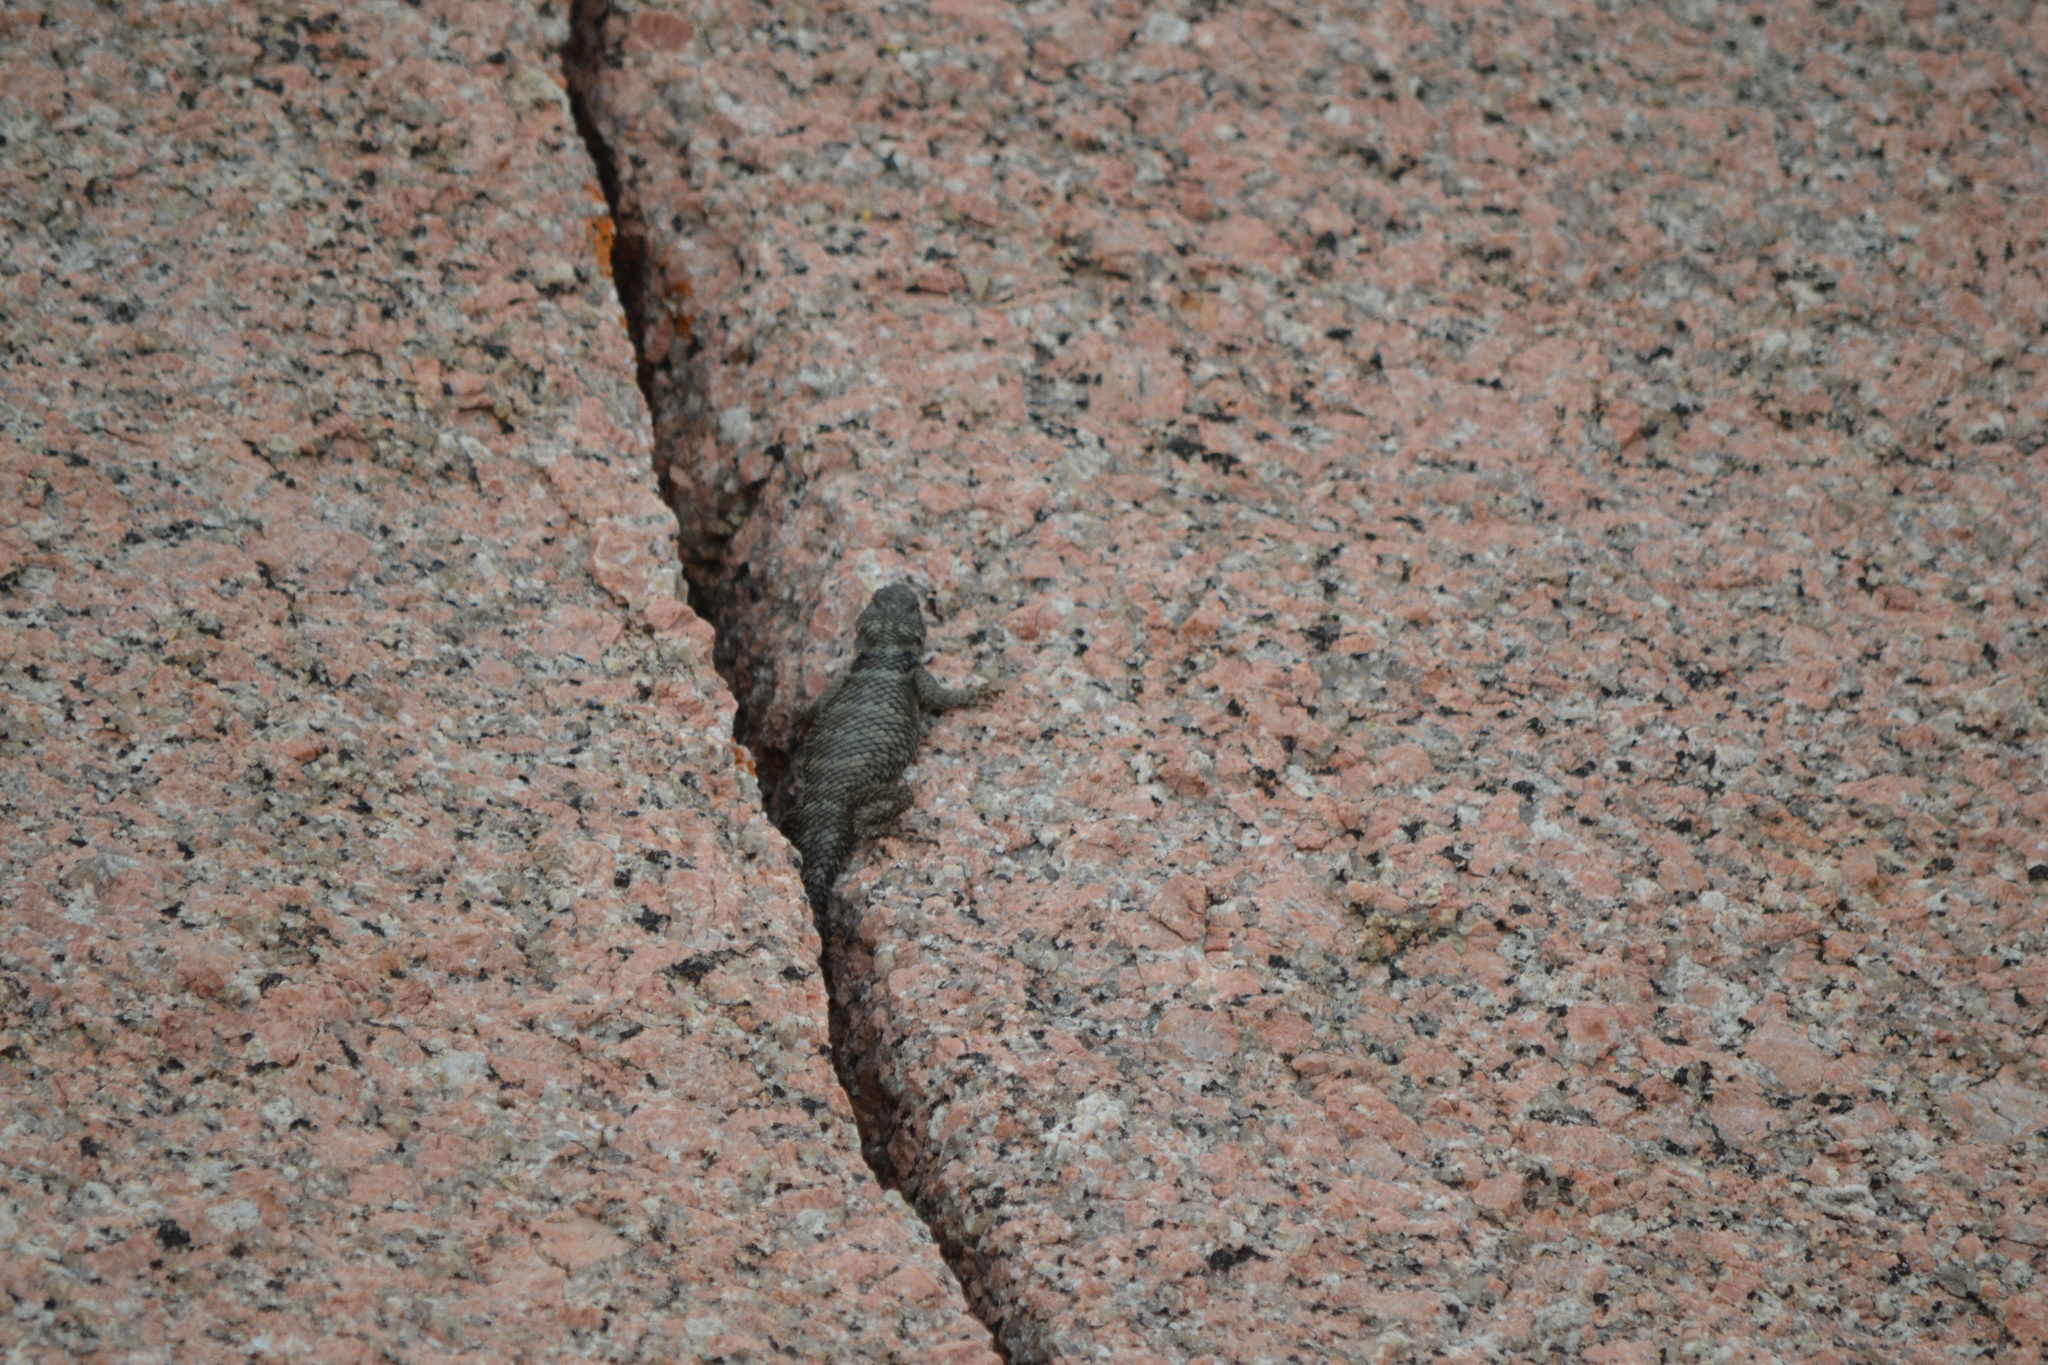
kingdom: Animalia
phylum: Chordata
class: Squamata
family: Phrynosomatidae
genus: Sceloporus
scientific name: Sceloporus poinsettii
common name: Crevice spiny lizard
